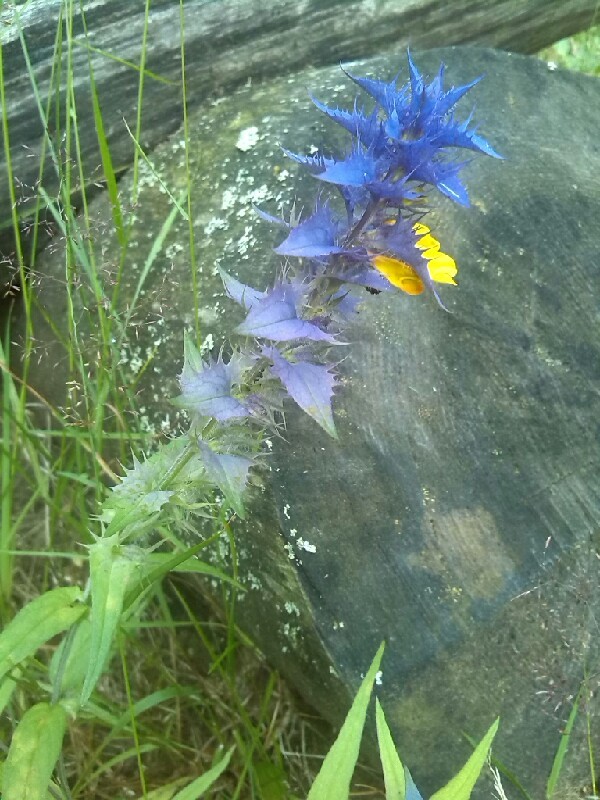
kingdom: Plantae
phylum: Tracheophyta
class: Magnoliopsida
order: Lamiales
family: Orobanchaceae
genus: Melampyrum
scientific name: Melampyrum nemorosum
